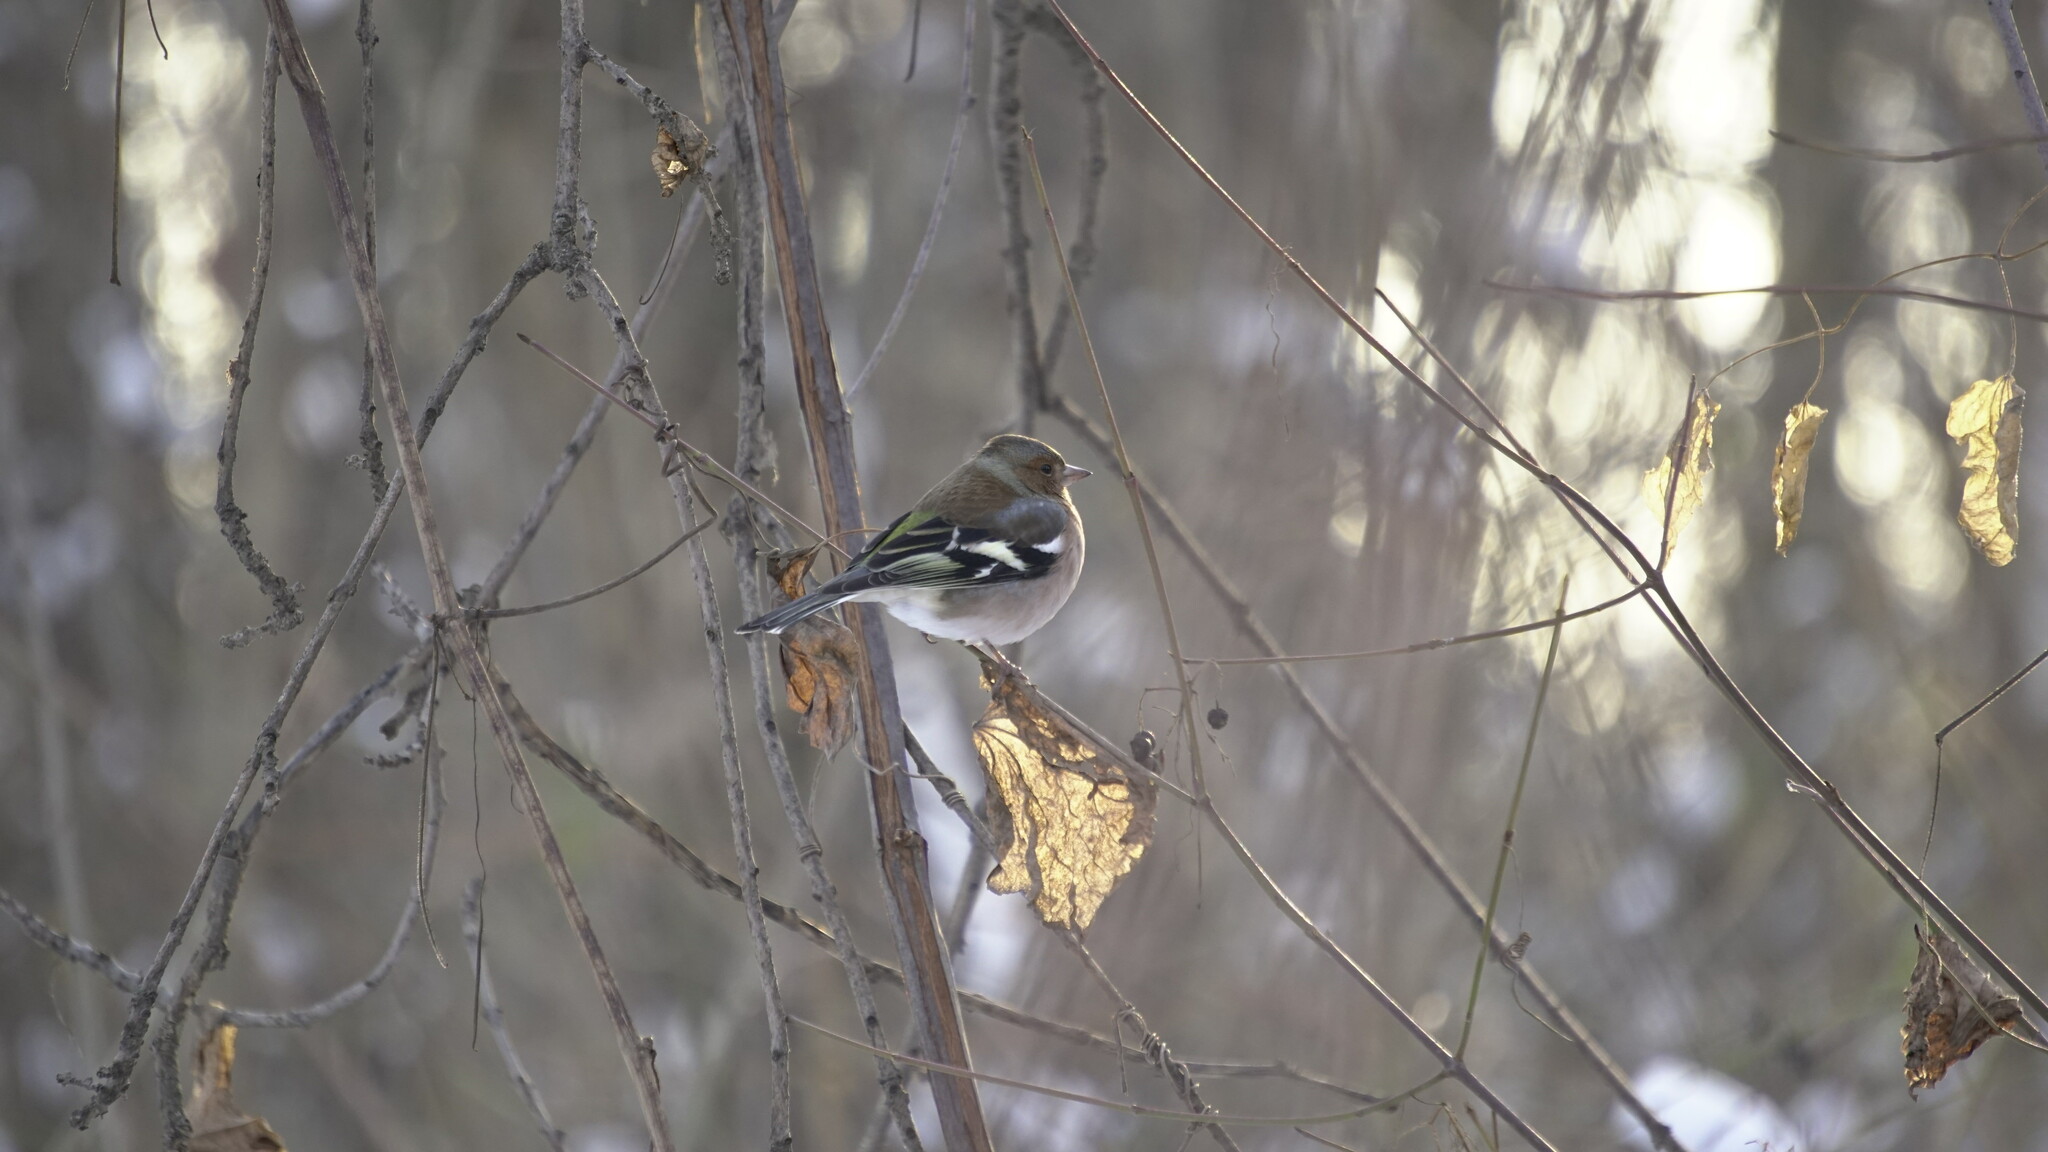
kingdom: Animalia
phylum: Chordata
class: Aves
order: Passeriformes
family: Fringillidae
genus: Fringilla
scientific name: Fringilla coelebs
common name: Common chaffinch
